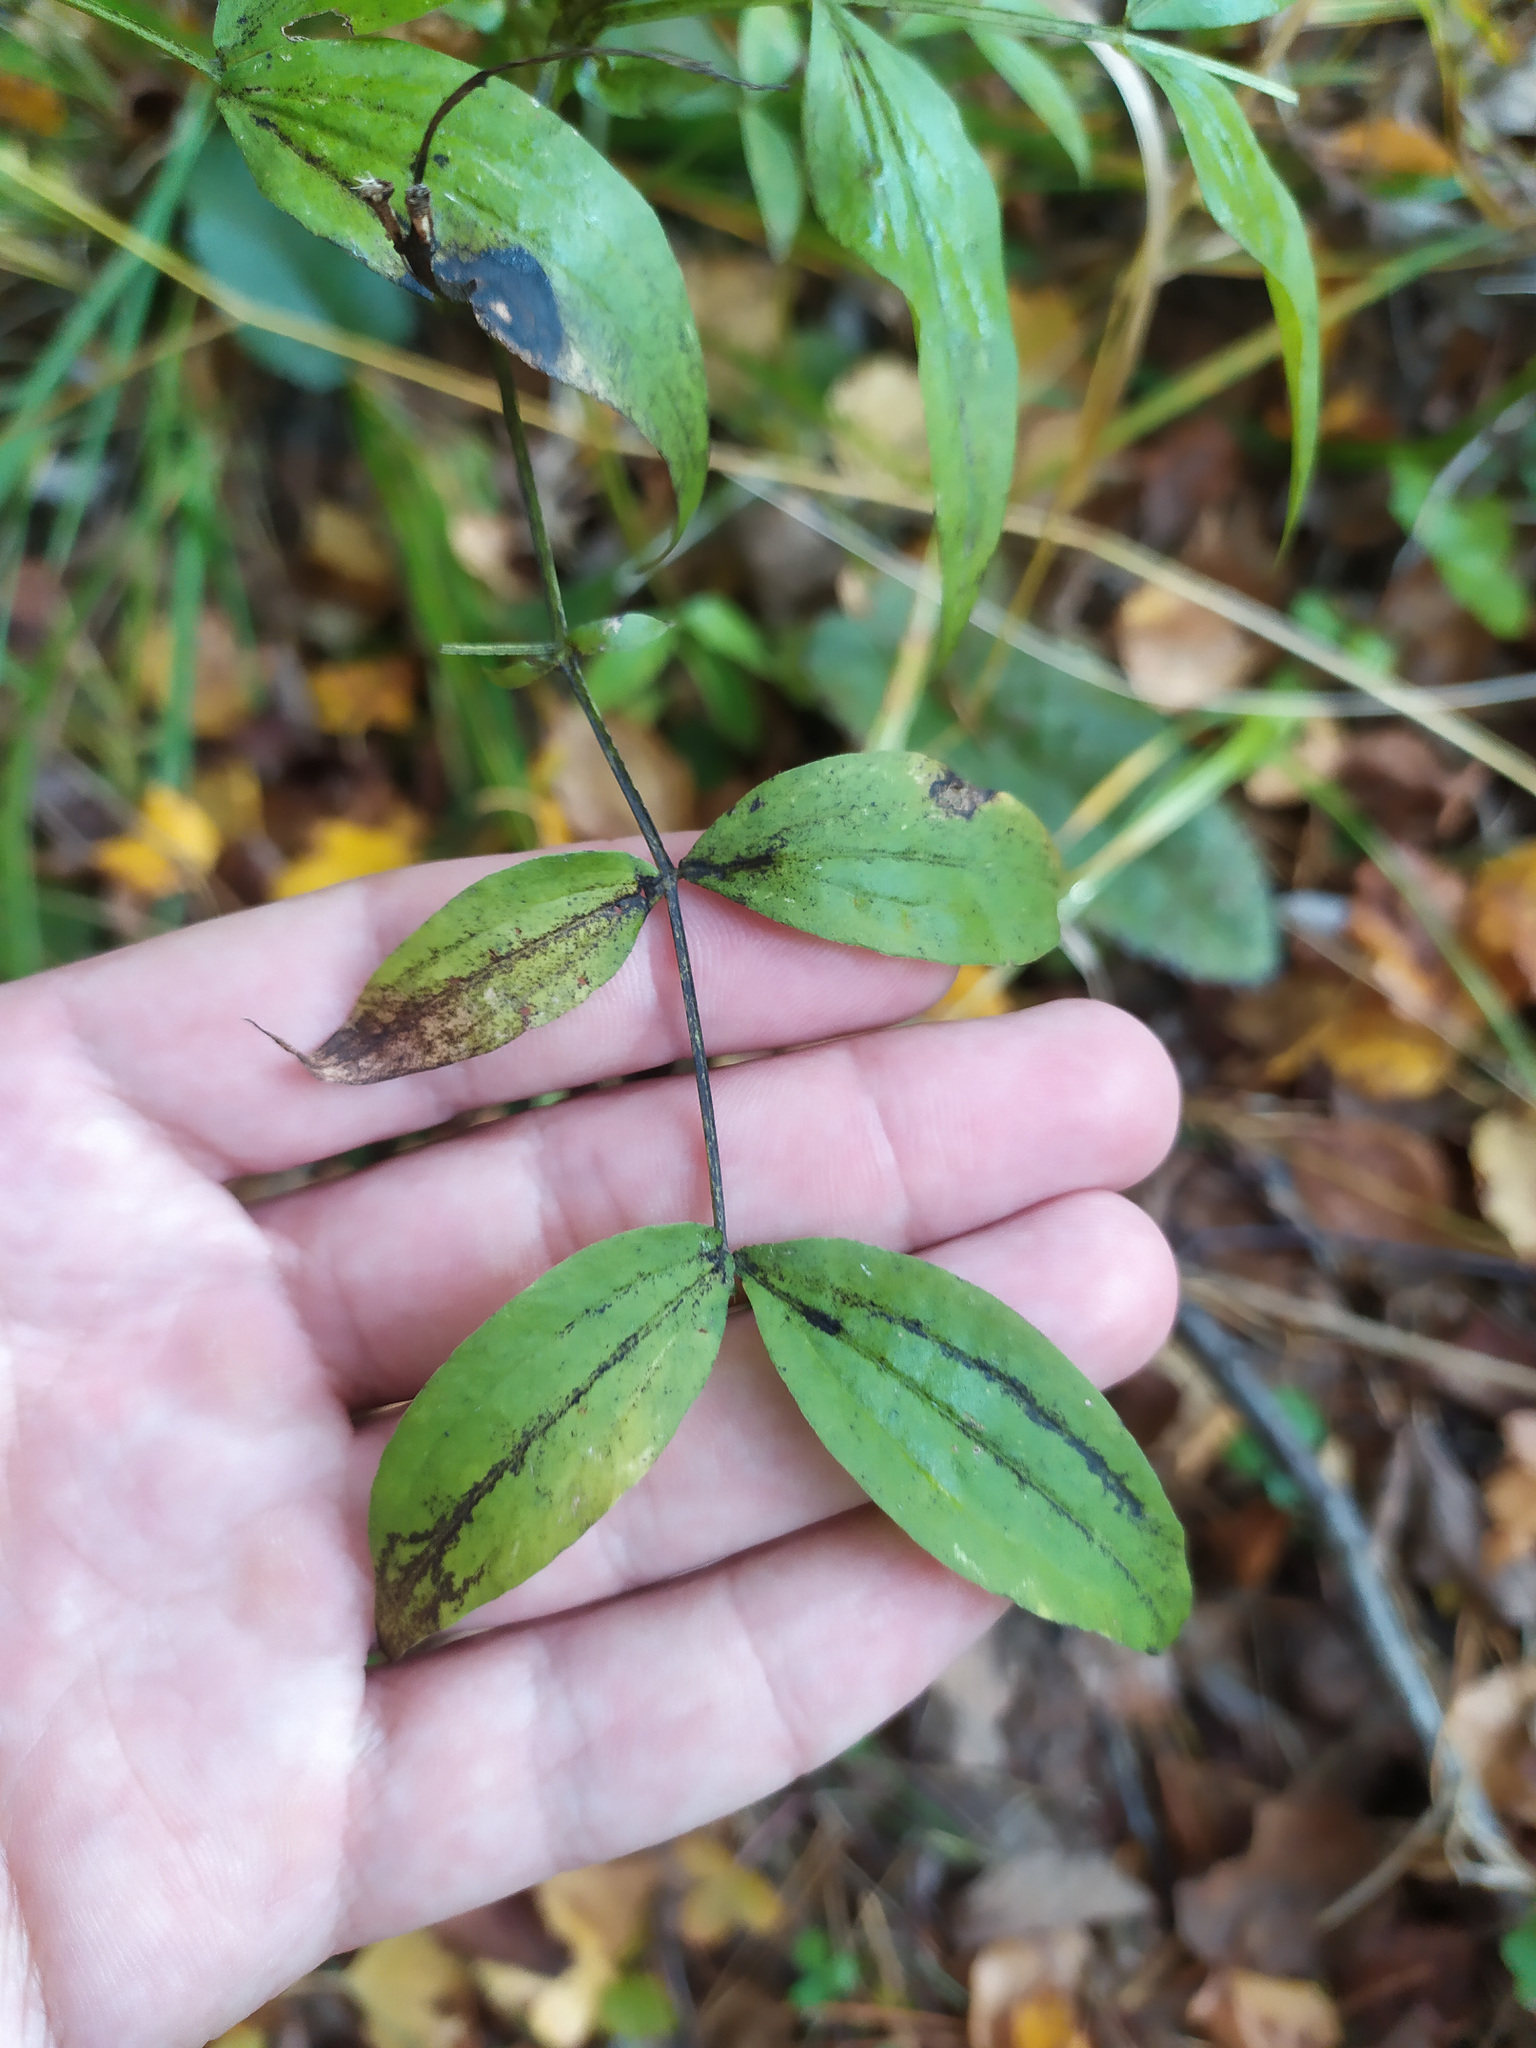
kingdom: Plantae
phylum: Tracheophyta
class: Magnoliopsida
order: Fabales
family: Fabaceae
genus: Lathyrus
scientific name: Lathyrus vernus
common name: Spring pea
